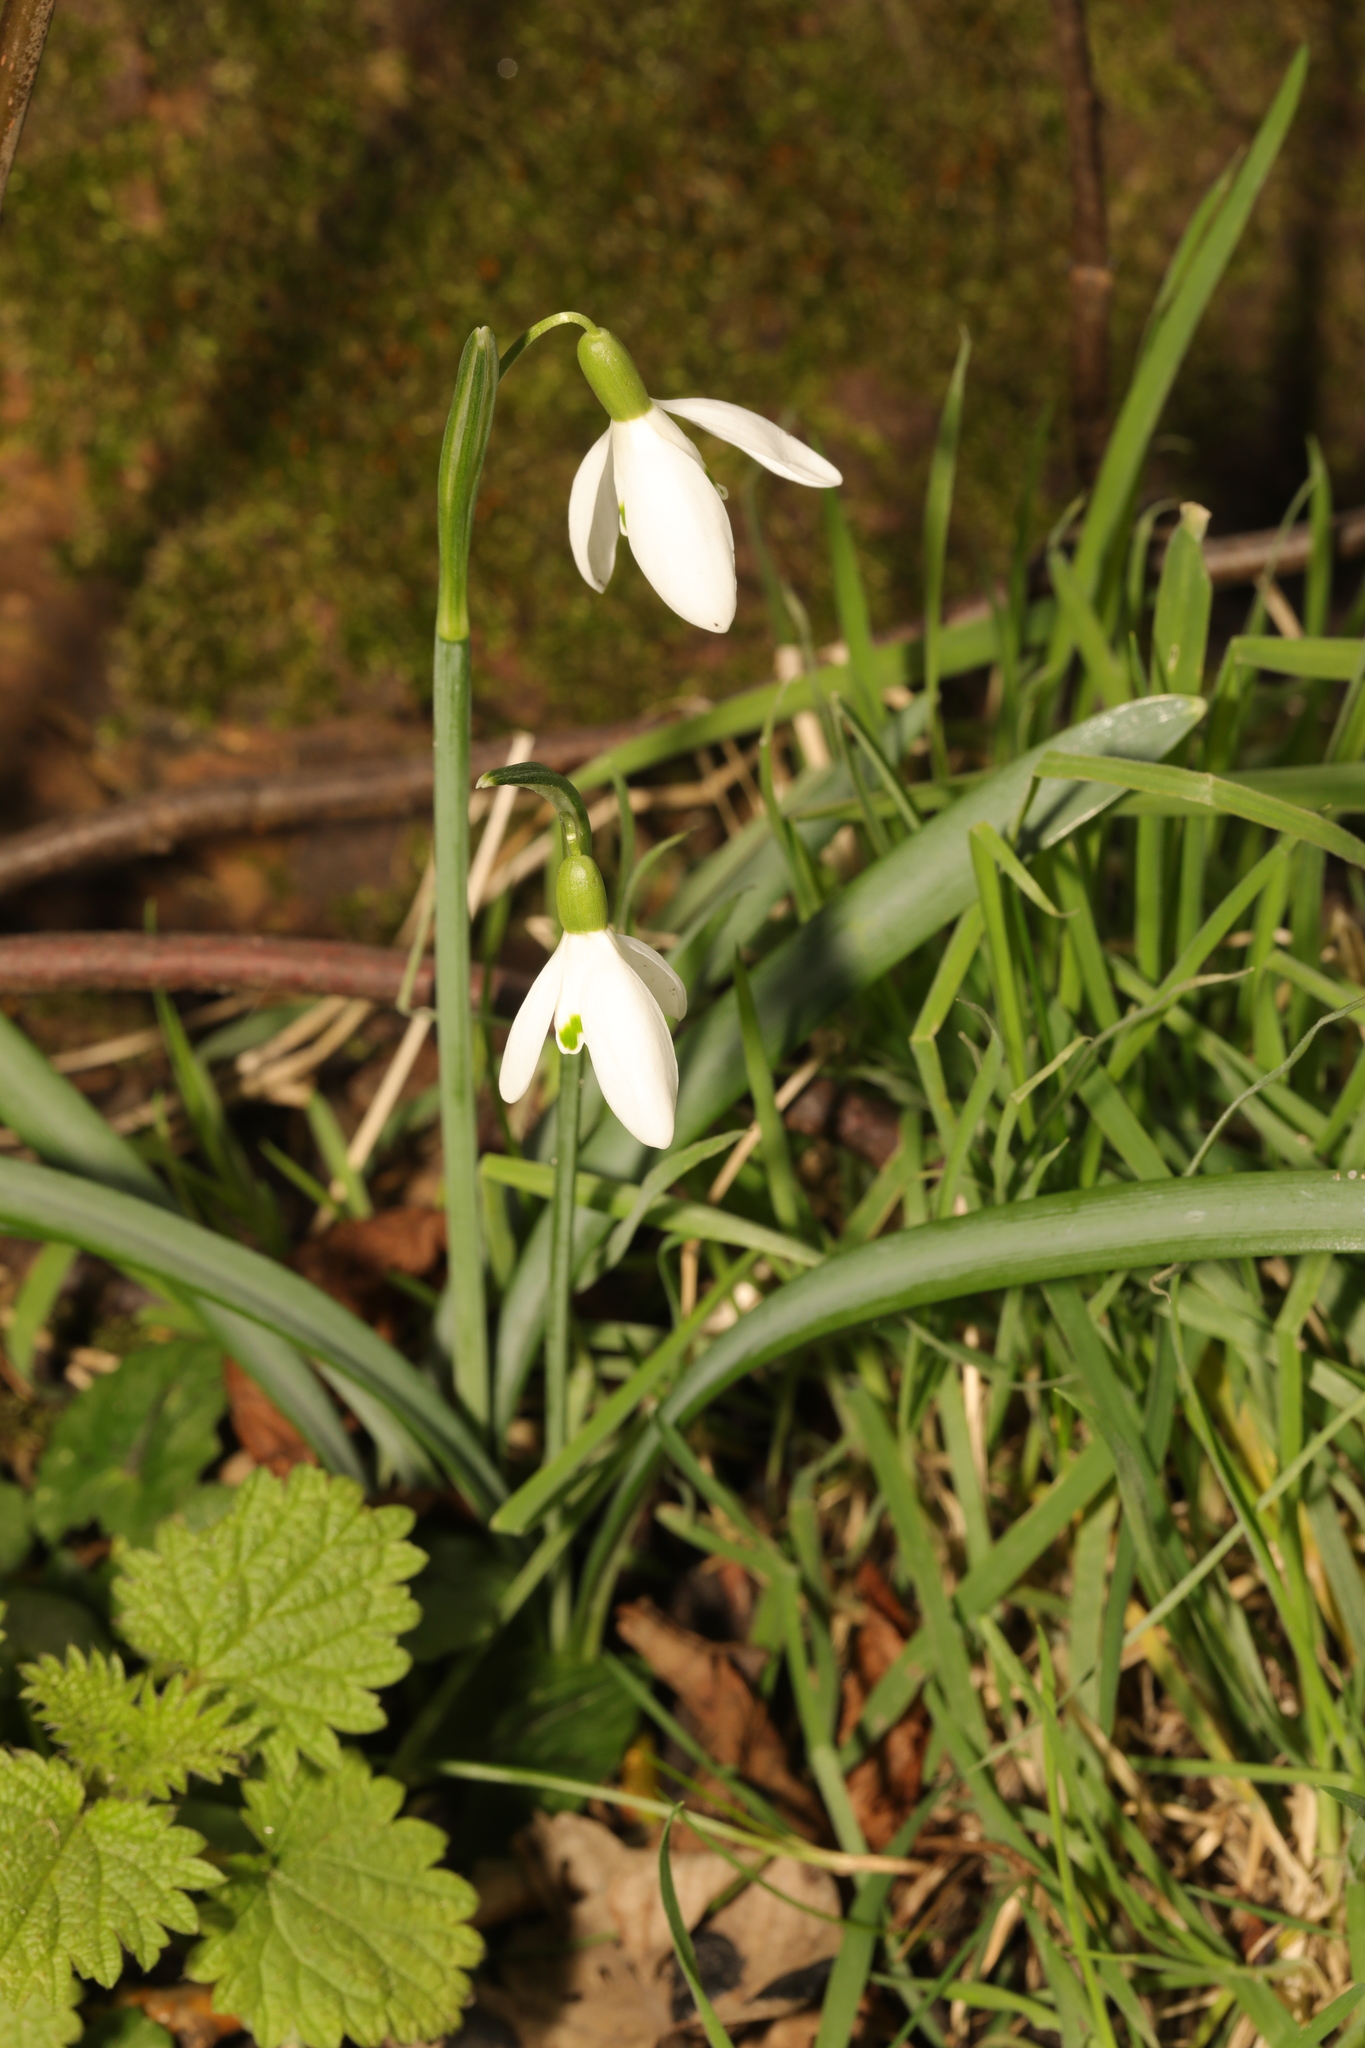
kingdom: Plantae
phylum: Tracheophyta
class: Liliopsida
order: Asparagales
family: Amaryllidaceae
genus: Galanthus
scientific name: Galanthus nivalis
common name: Snowdrop
